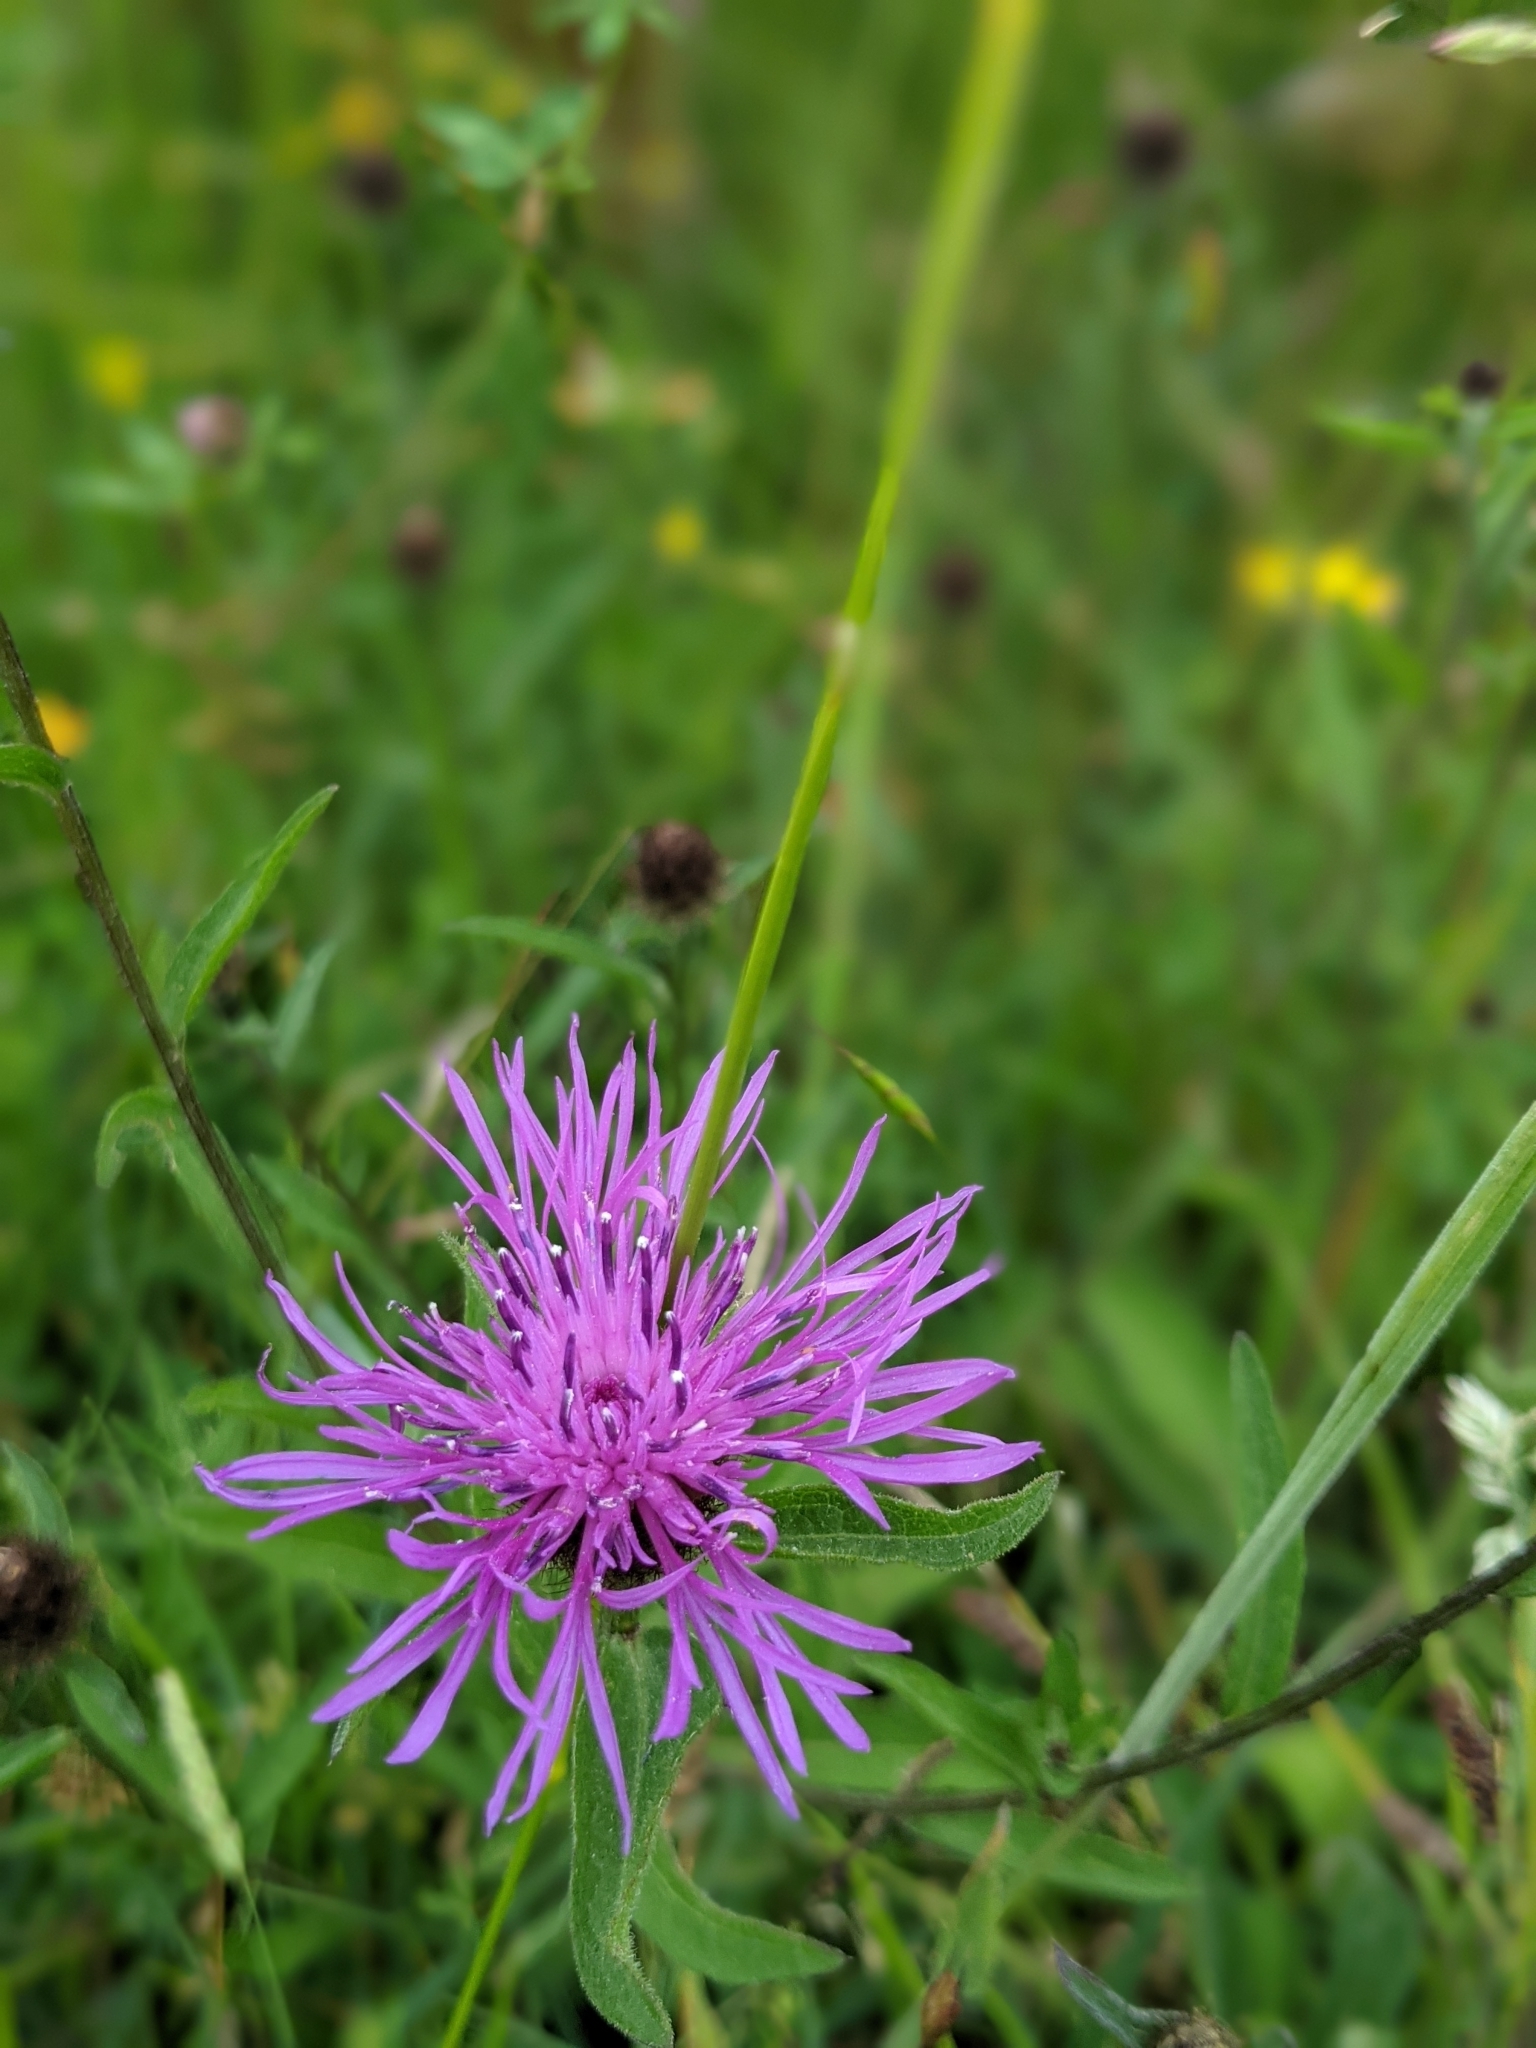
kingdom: Plantae
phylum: Tracheophyta
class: Magnoliopsida
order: Asterales
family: Asteraceae
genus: Centaurea
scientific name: Centaurea nigra
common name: Lesser knapweed
